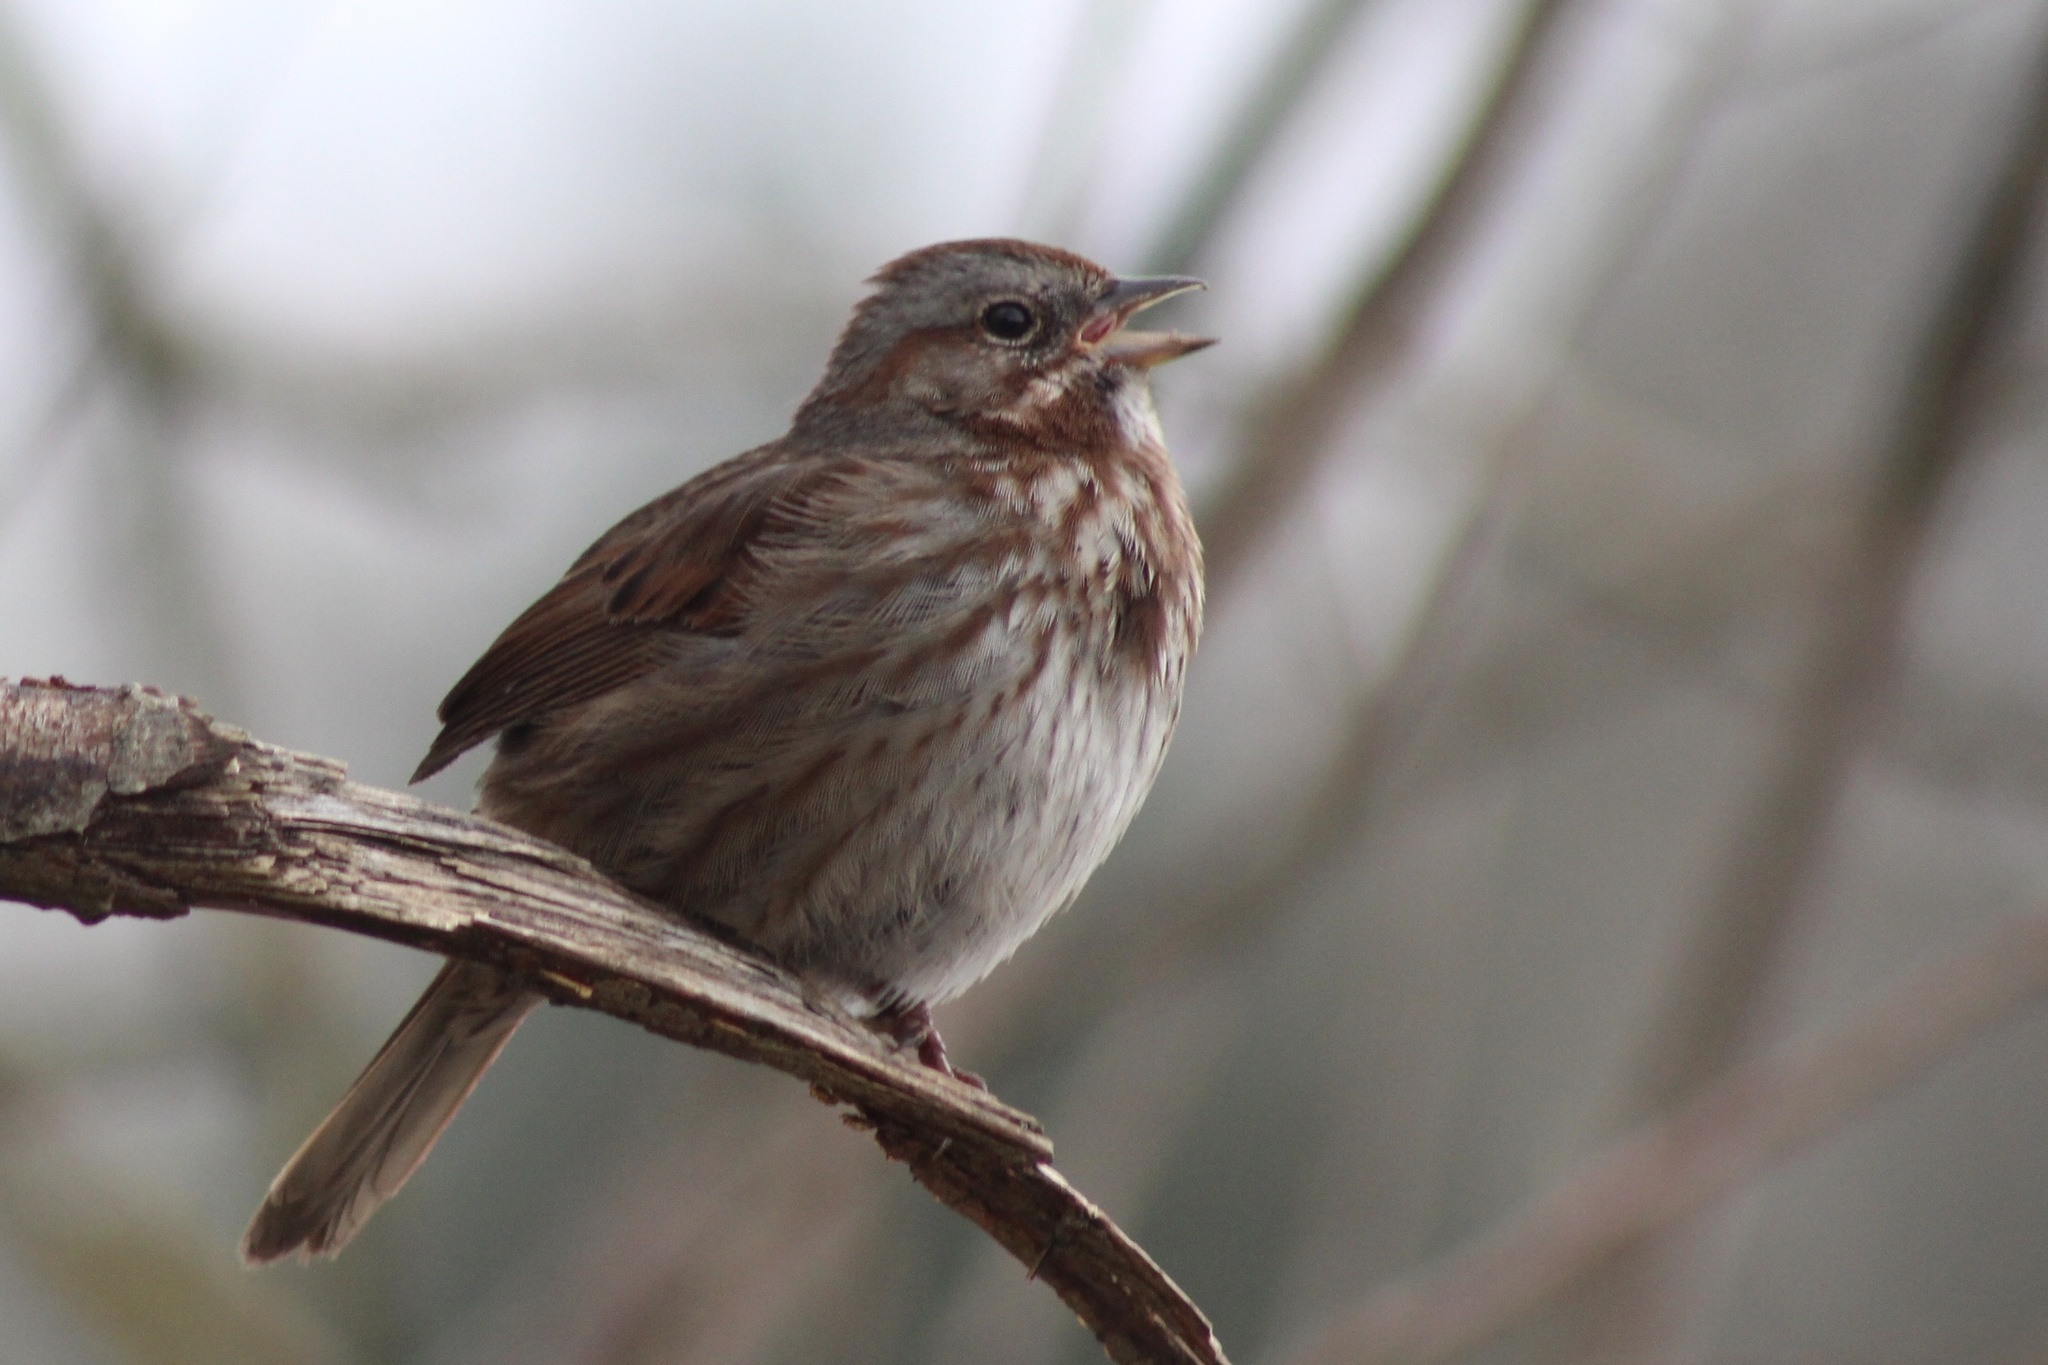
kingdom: Animalia
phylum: Chordata
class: Aves
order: Passeriformes
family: Passerellidae
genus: Melospiza
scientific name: Melospiza melodia
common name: Song sparrow
